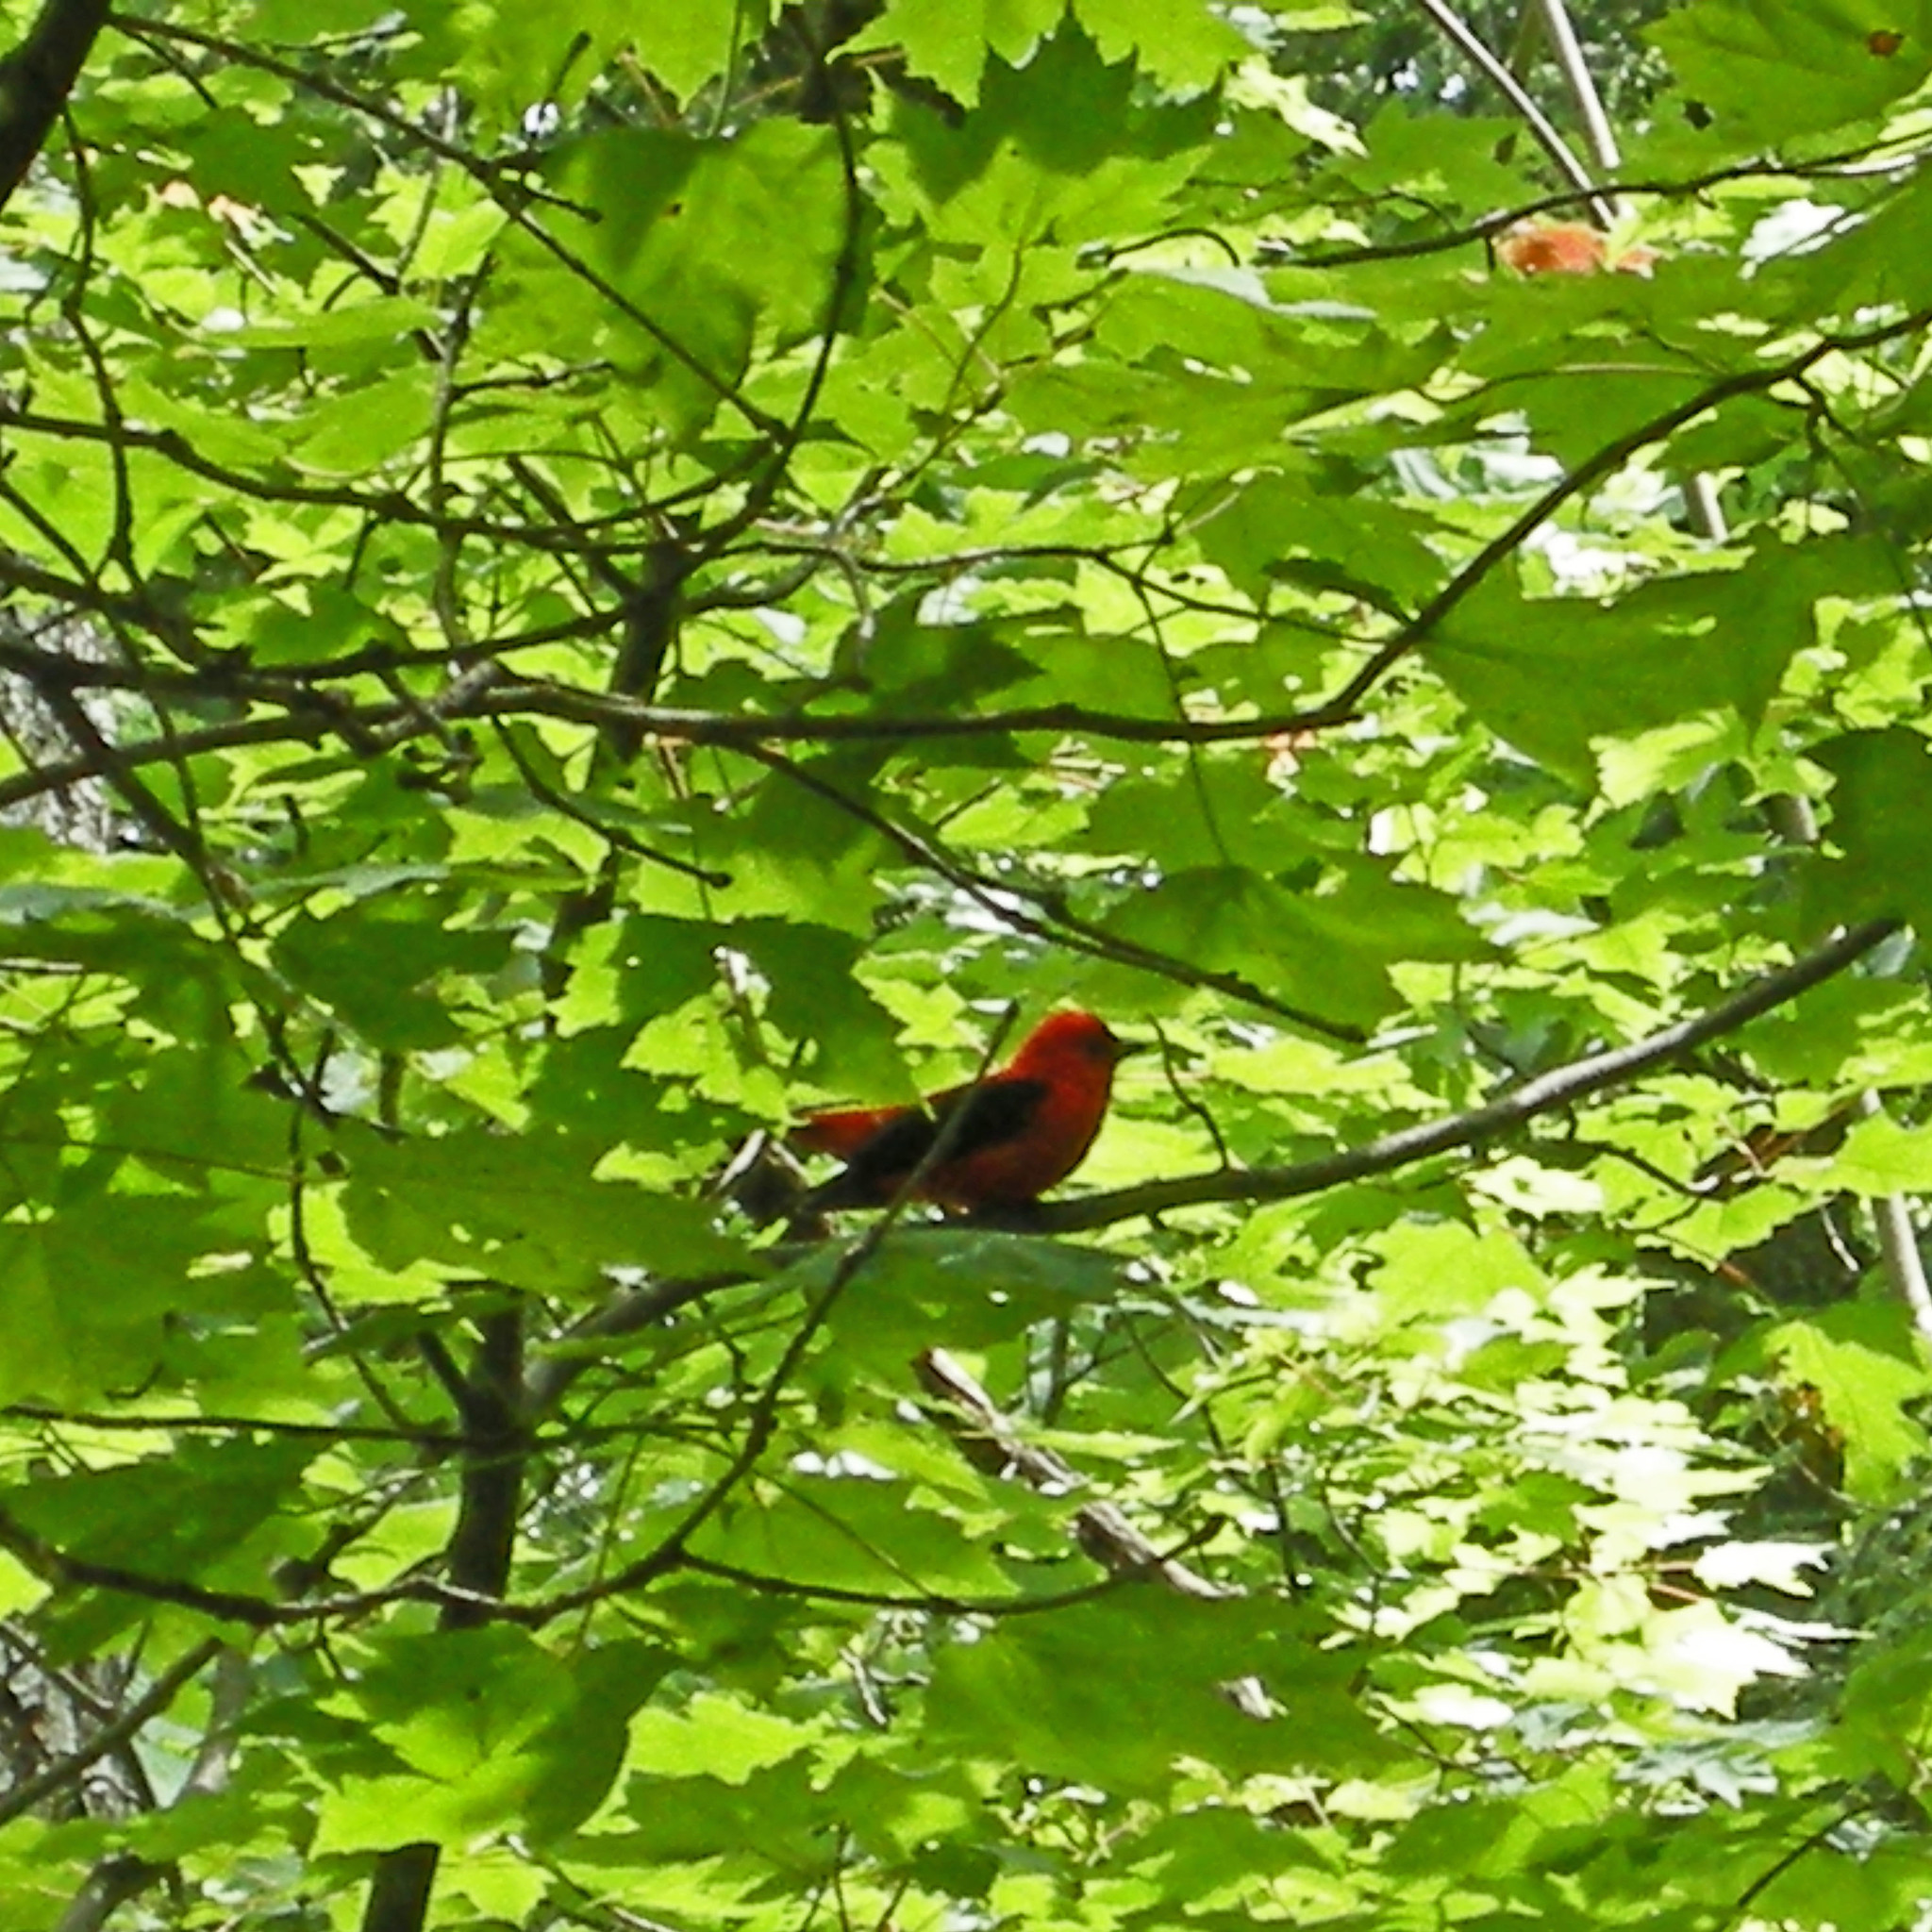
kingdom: Animalia
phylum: Chordata
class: Aves
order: Passeriformes
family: Cardinalidae
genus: Piranga
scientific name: Piranga olivacea
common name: Scarlet tanager
